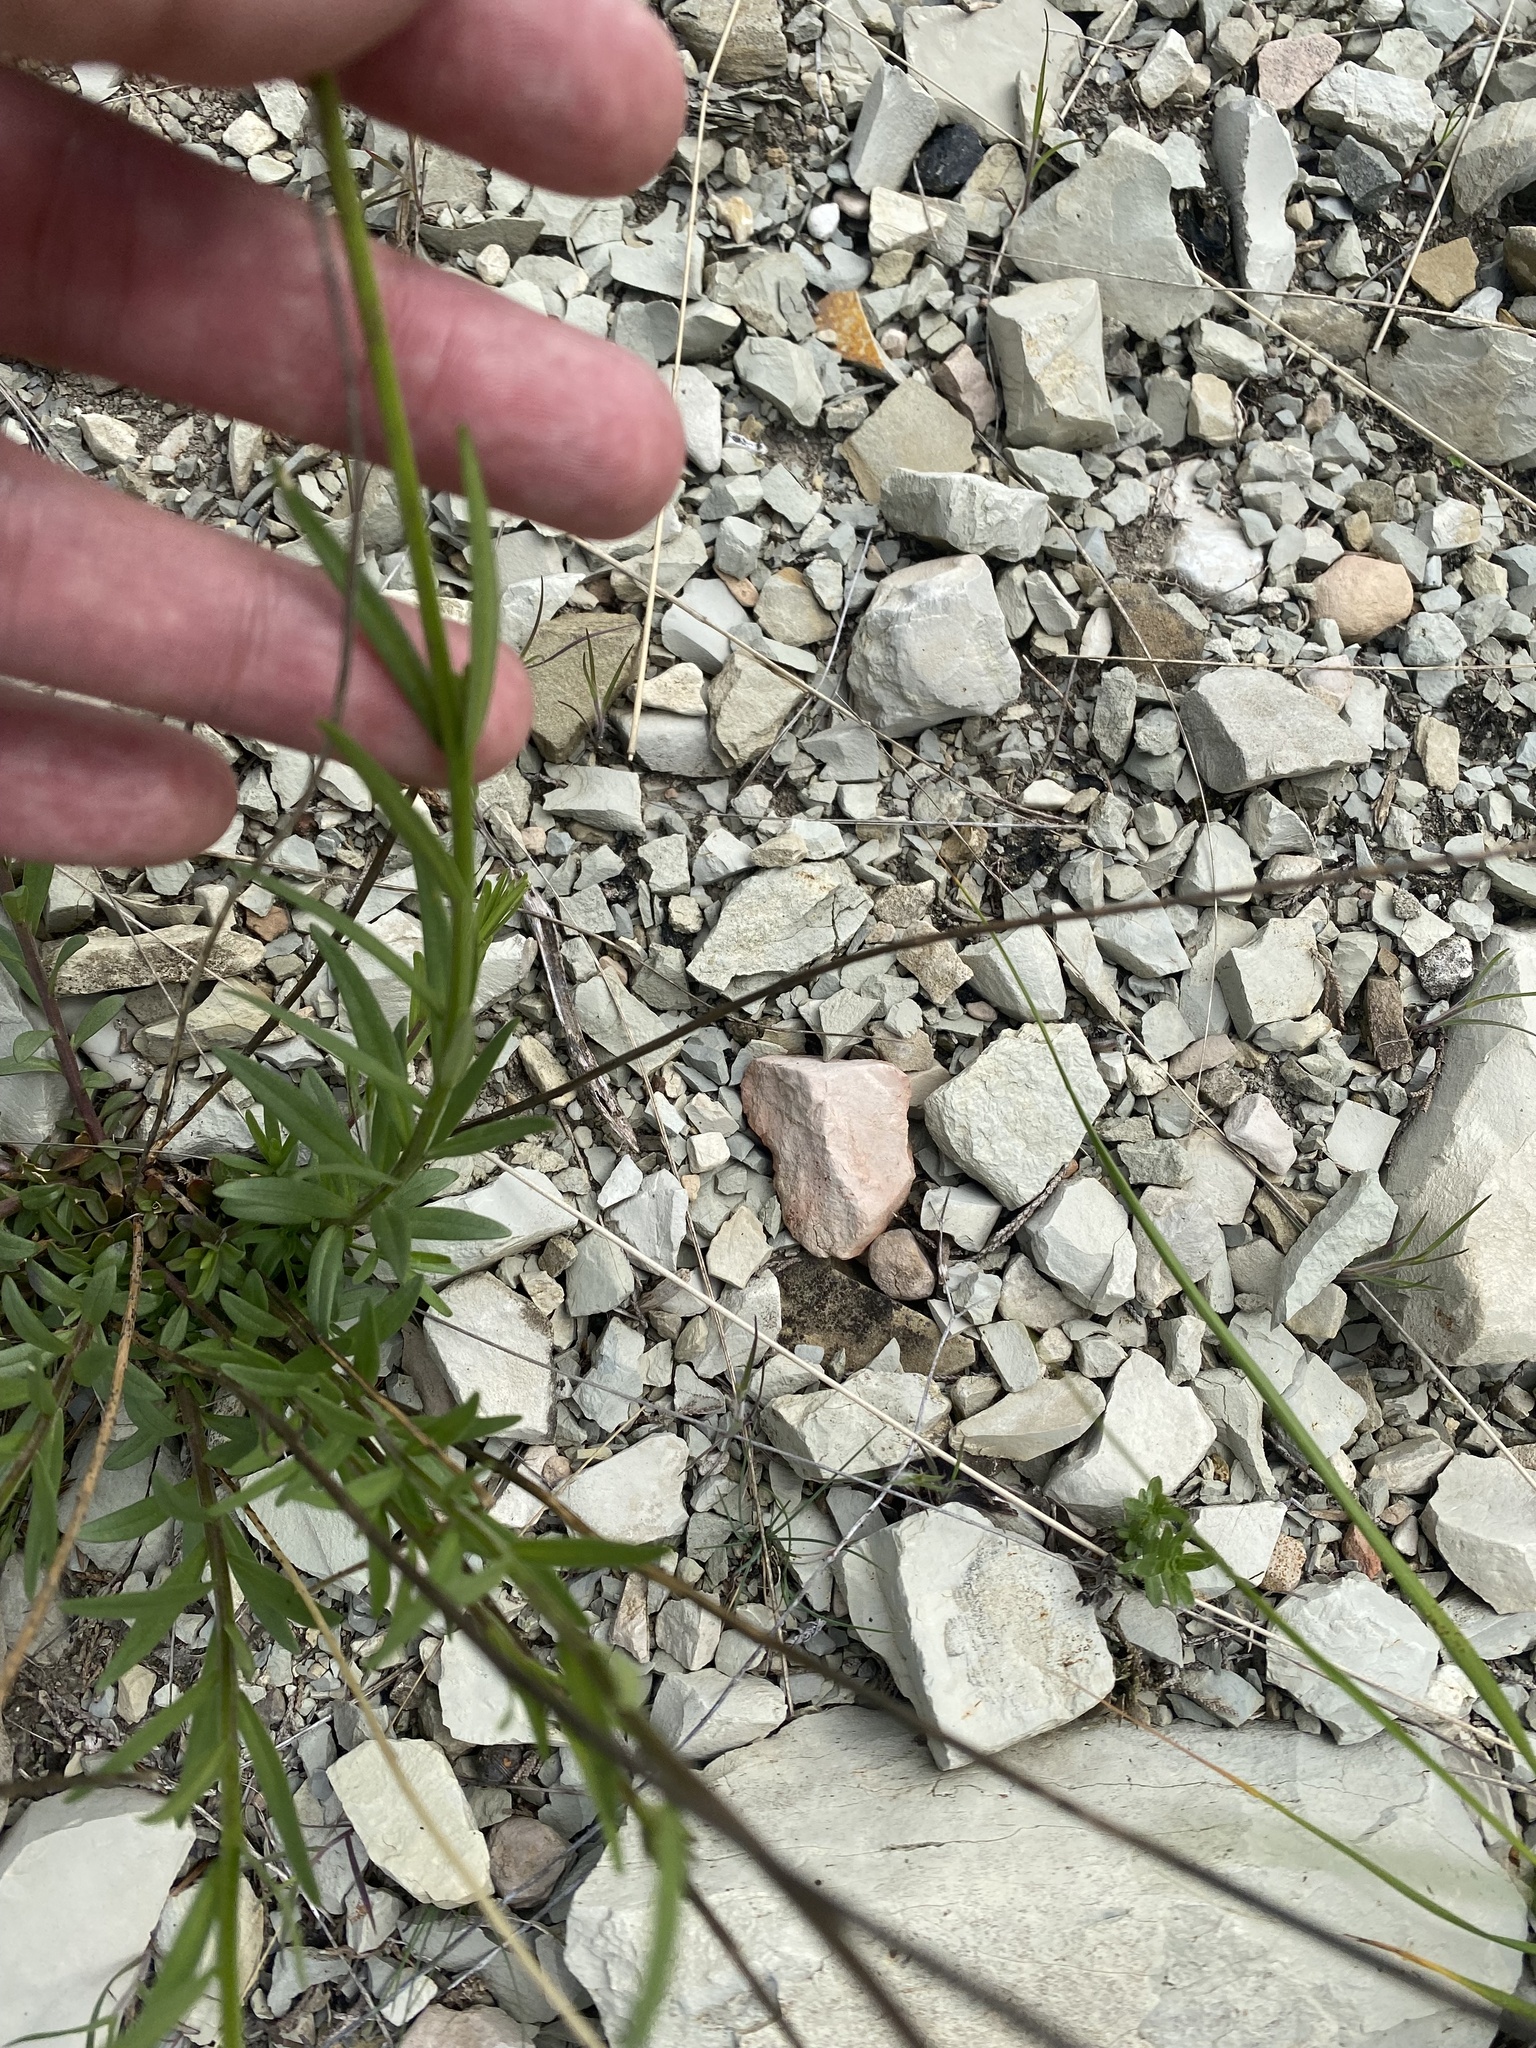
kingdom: Plantae
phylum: Tracheophyta
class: Magnoliopsida
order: Fabales
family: Polygalaceae
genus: Polygala
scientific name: Polygala major
